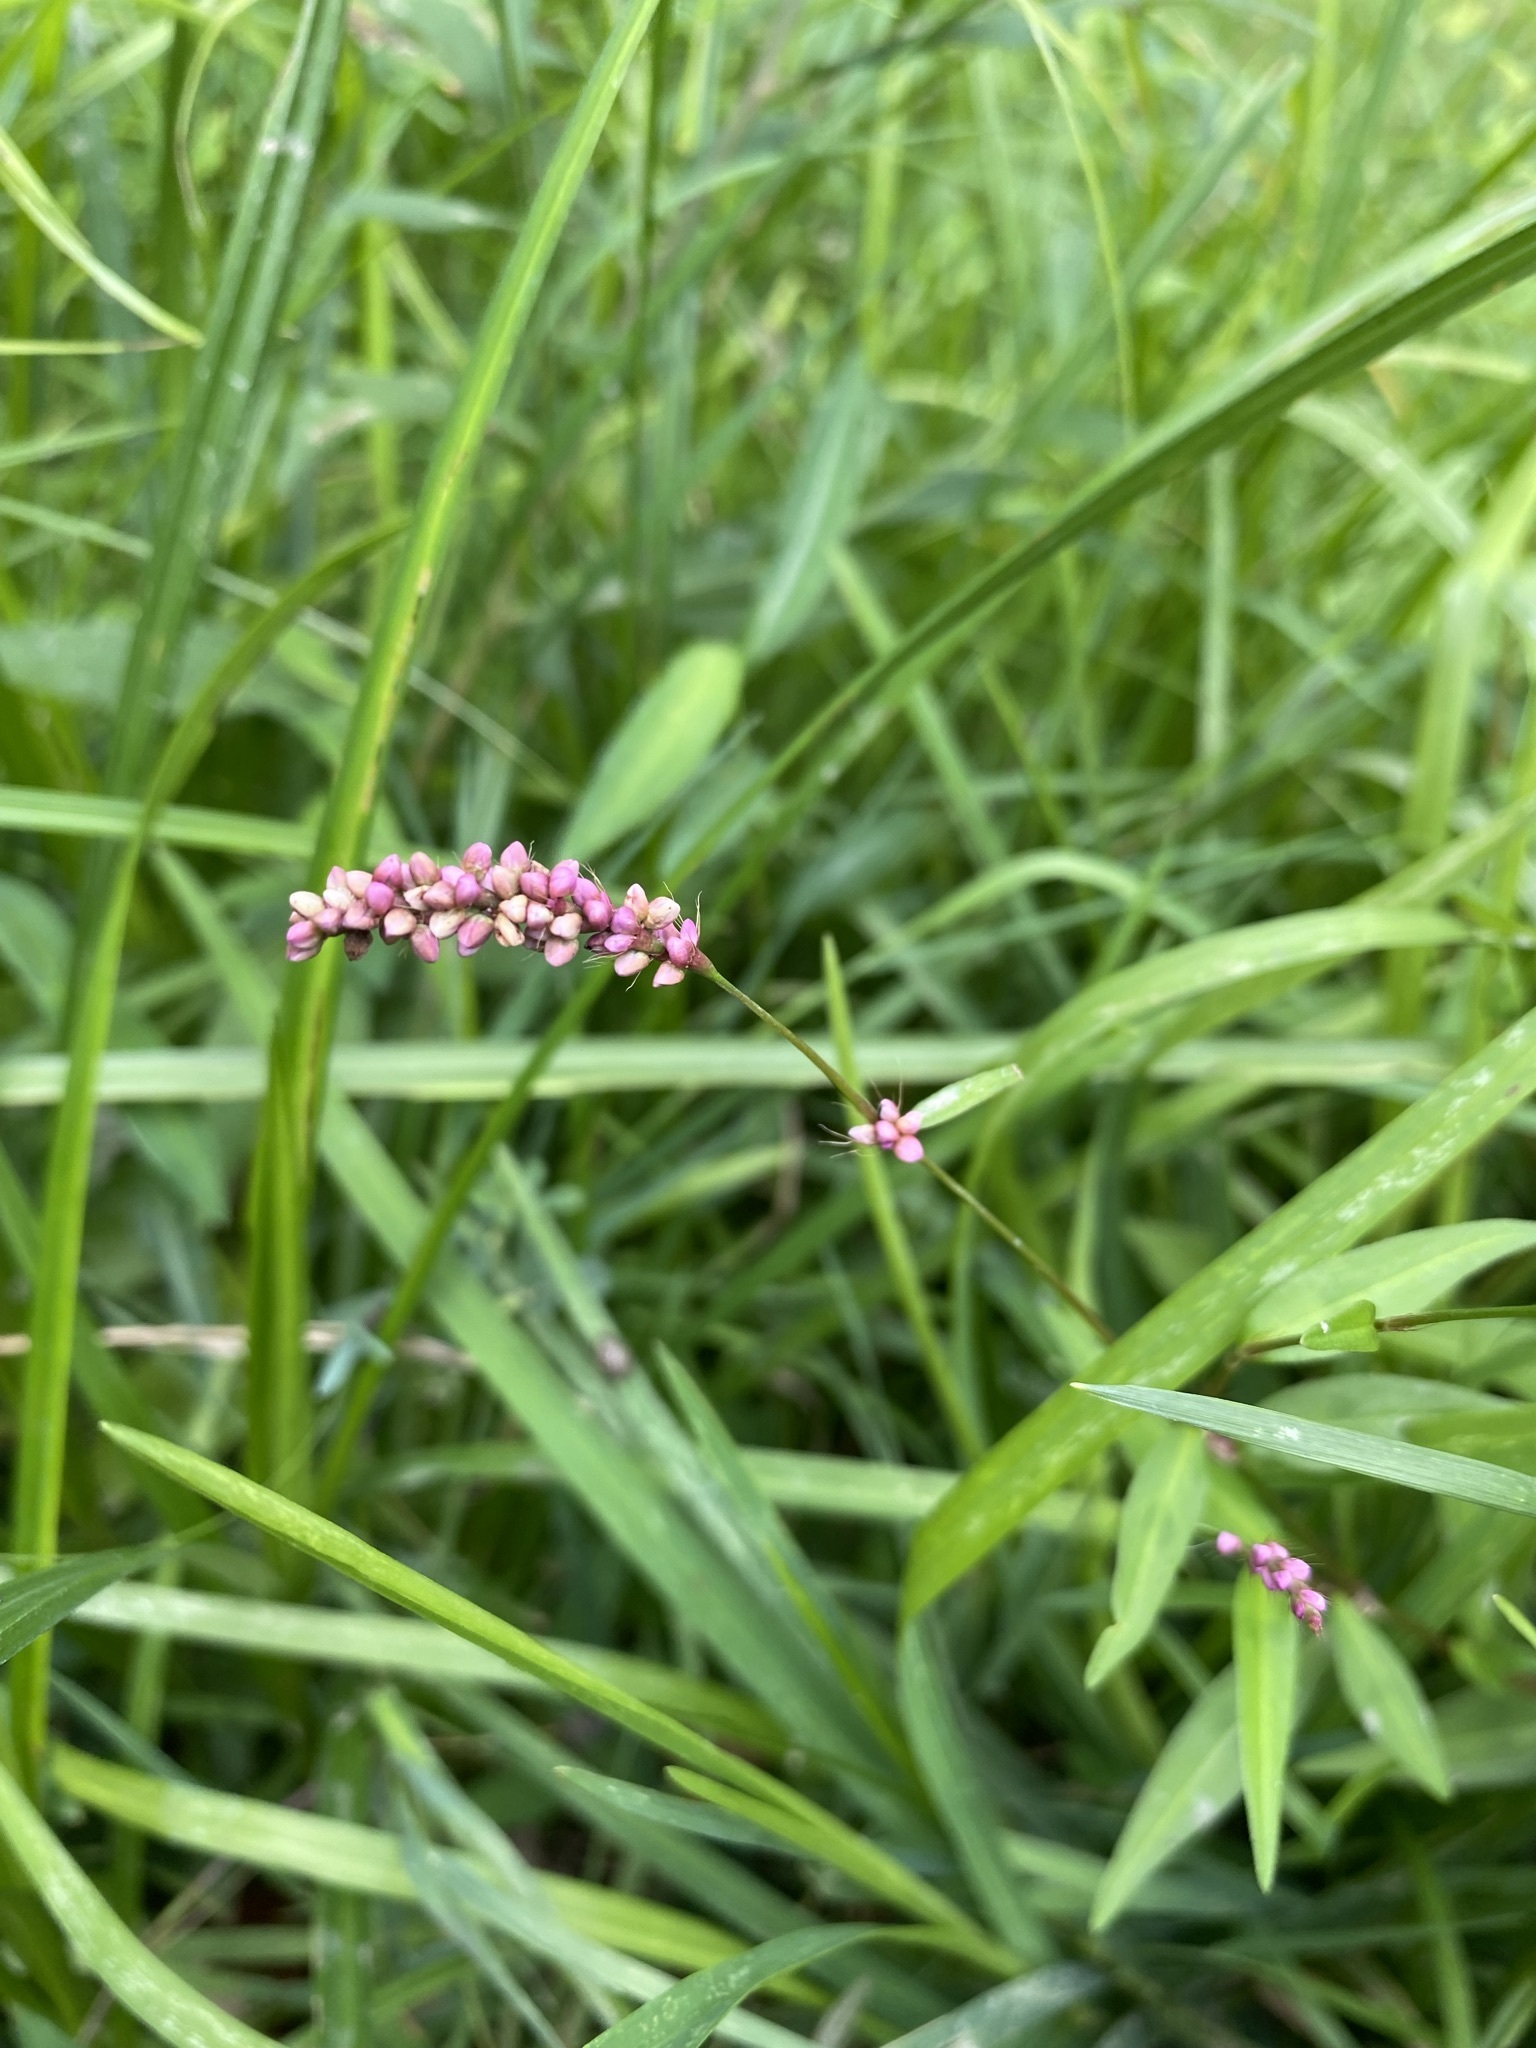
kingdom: Plantae
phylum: Tracheophyta
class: Magnoliopsida
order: Caryophyllales
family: Polygonaceae
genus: Persicaria
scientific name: Persicaria longiseta
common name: Bristly lady's-thumb
